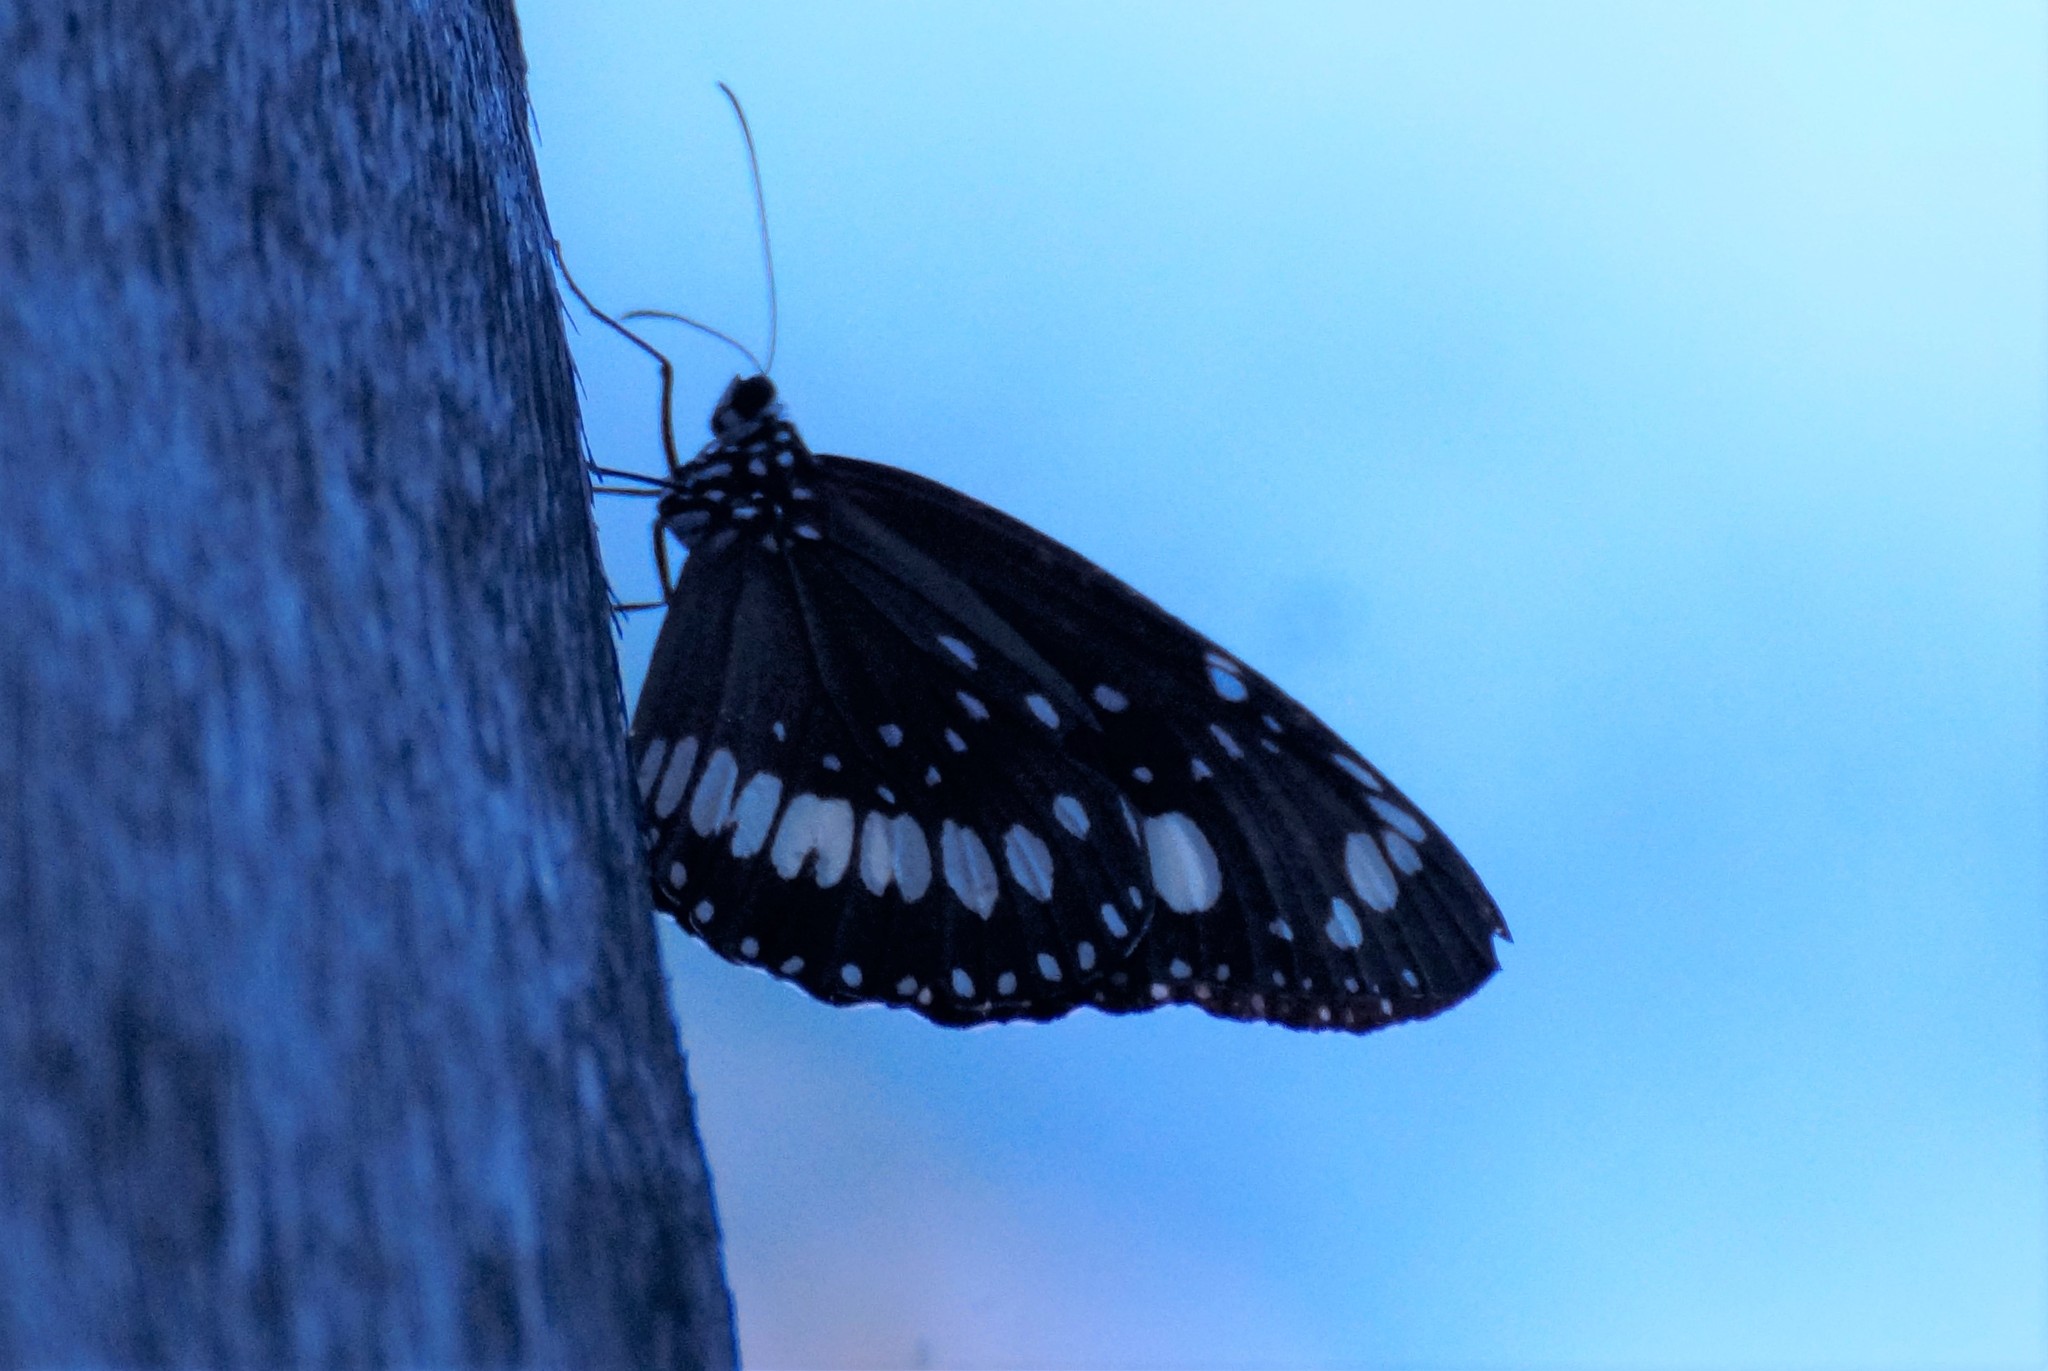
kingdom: Animalia
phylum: Arthropoda
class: Insecta
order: Lepidoptera
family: Nymphalidae
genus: Euploea
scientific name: Euploea core
